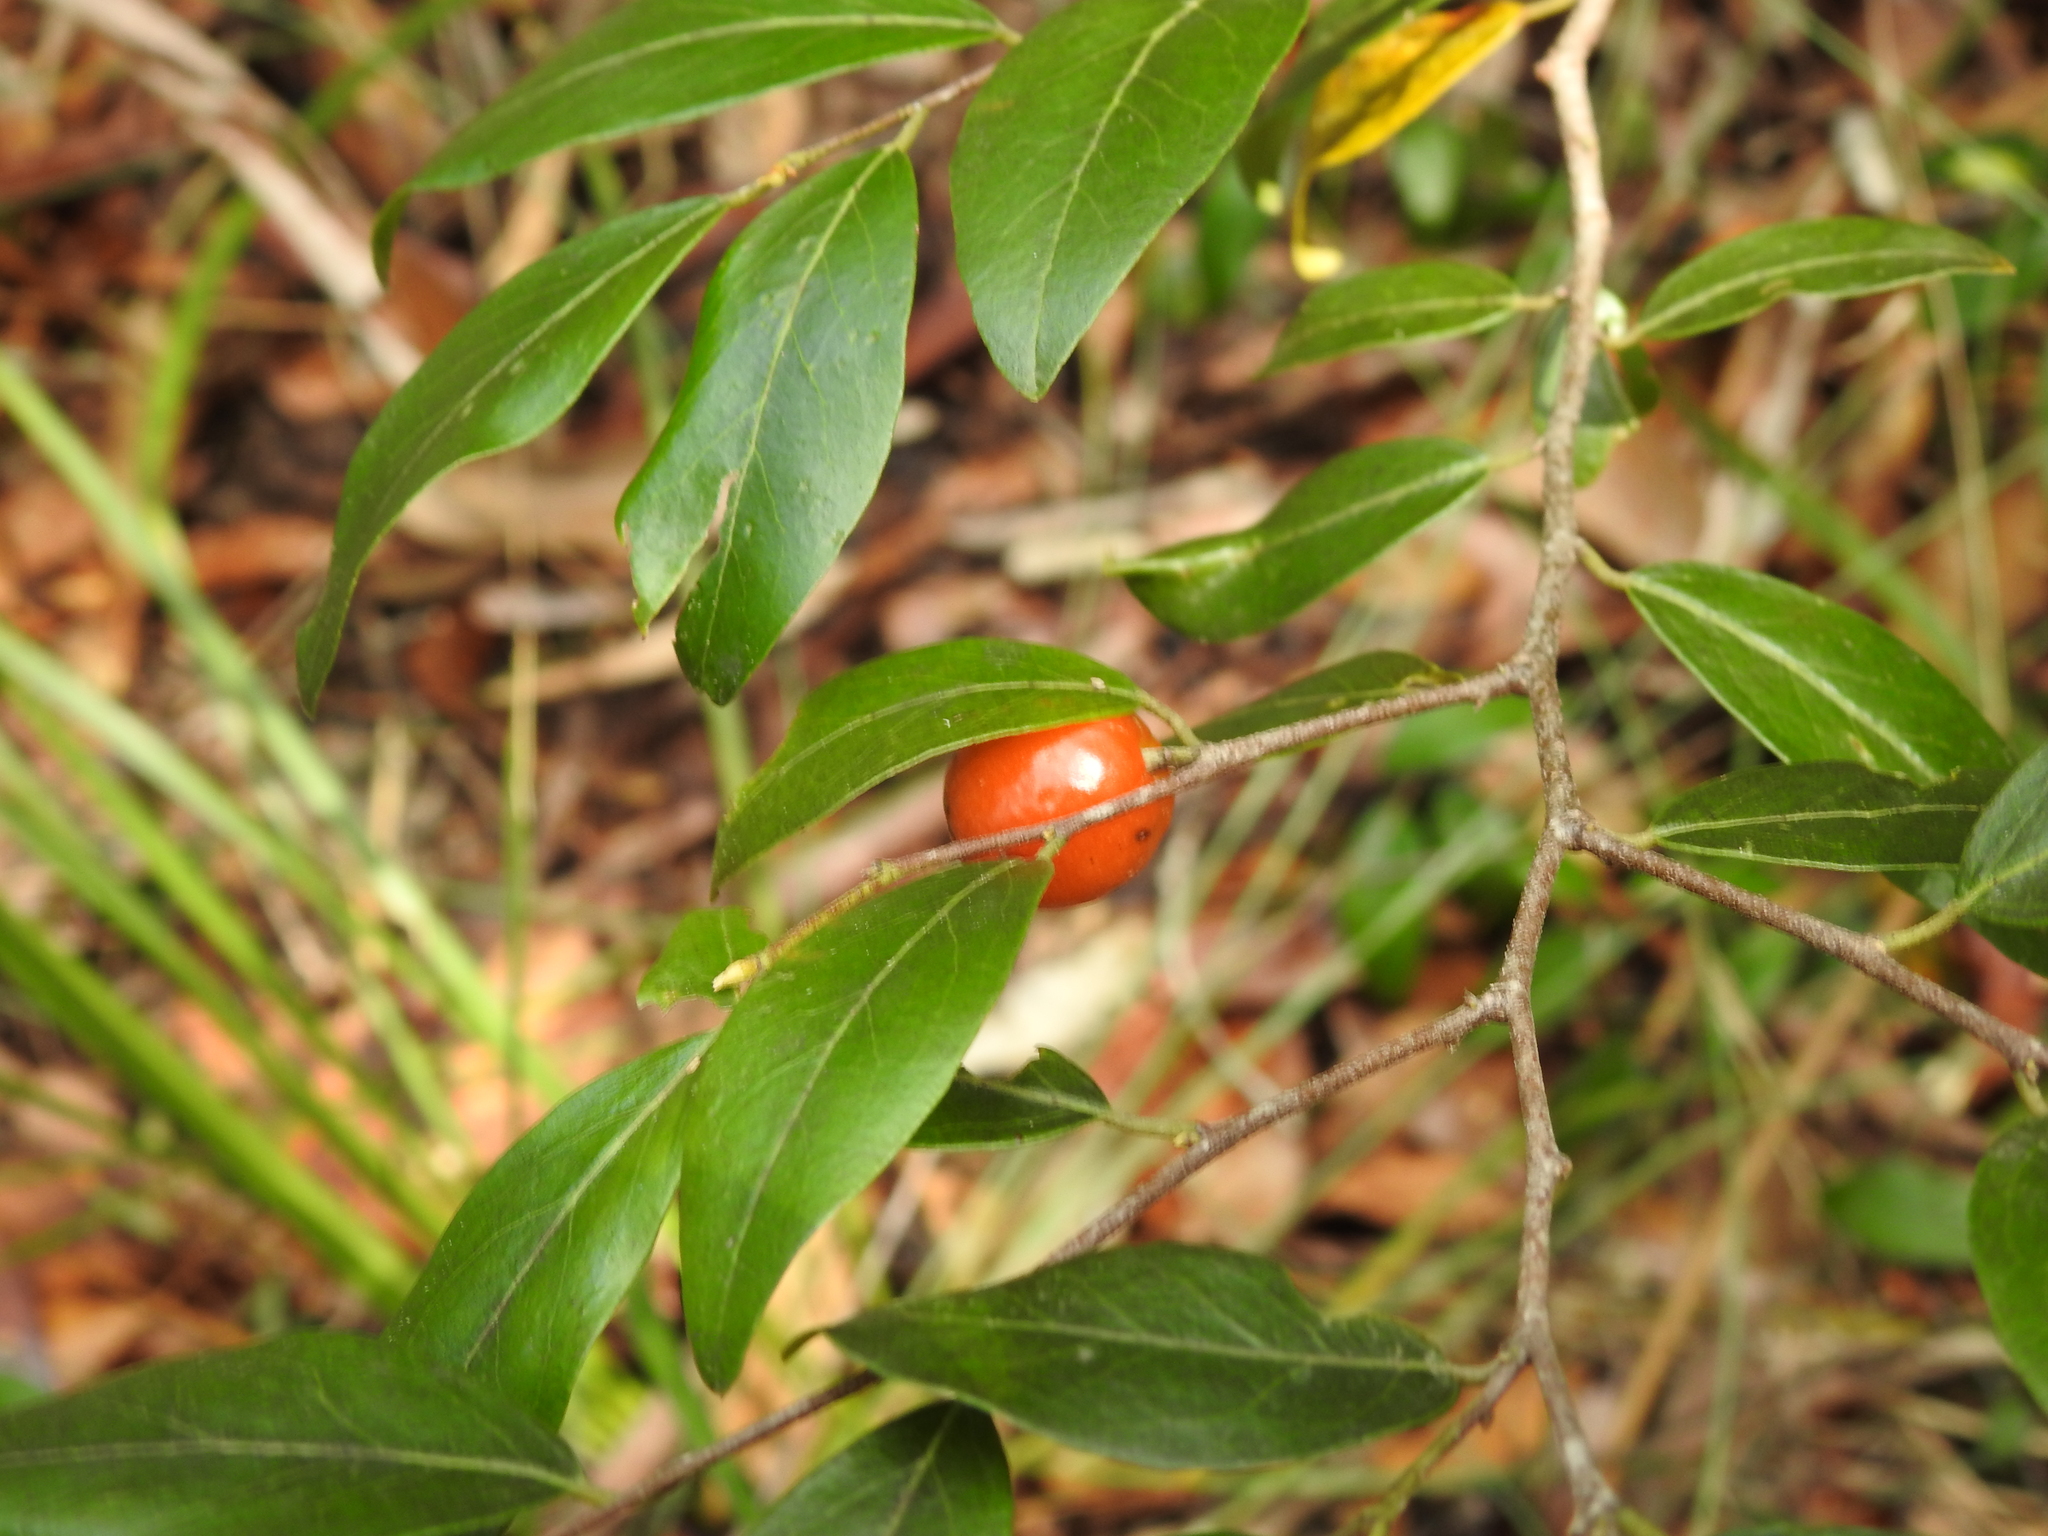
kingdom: Plantae
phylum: Tracheophyta
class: Magnoliopsida
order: Malpighiales
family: Picrodendraceae
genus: Petalostigma
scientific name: Petalostigma triloculare
